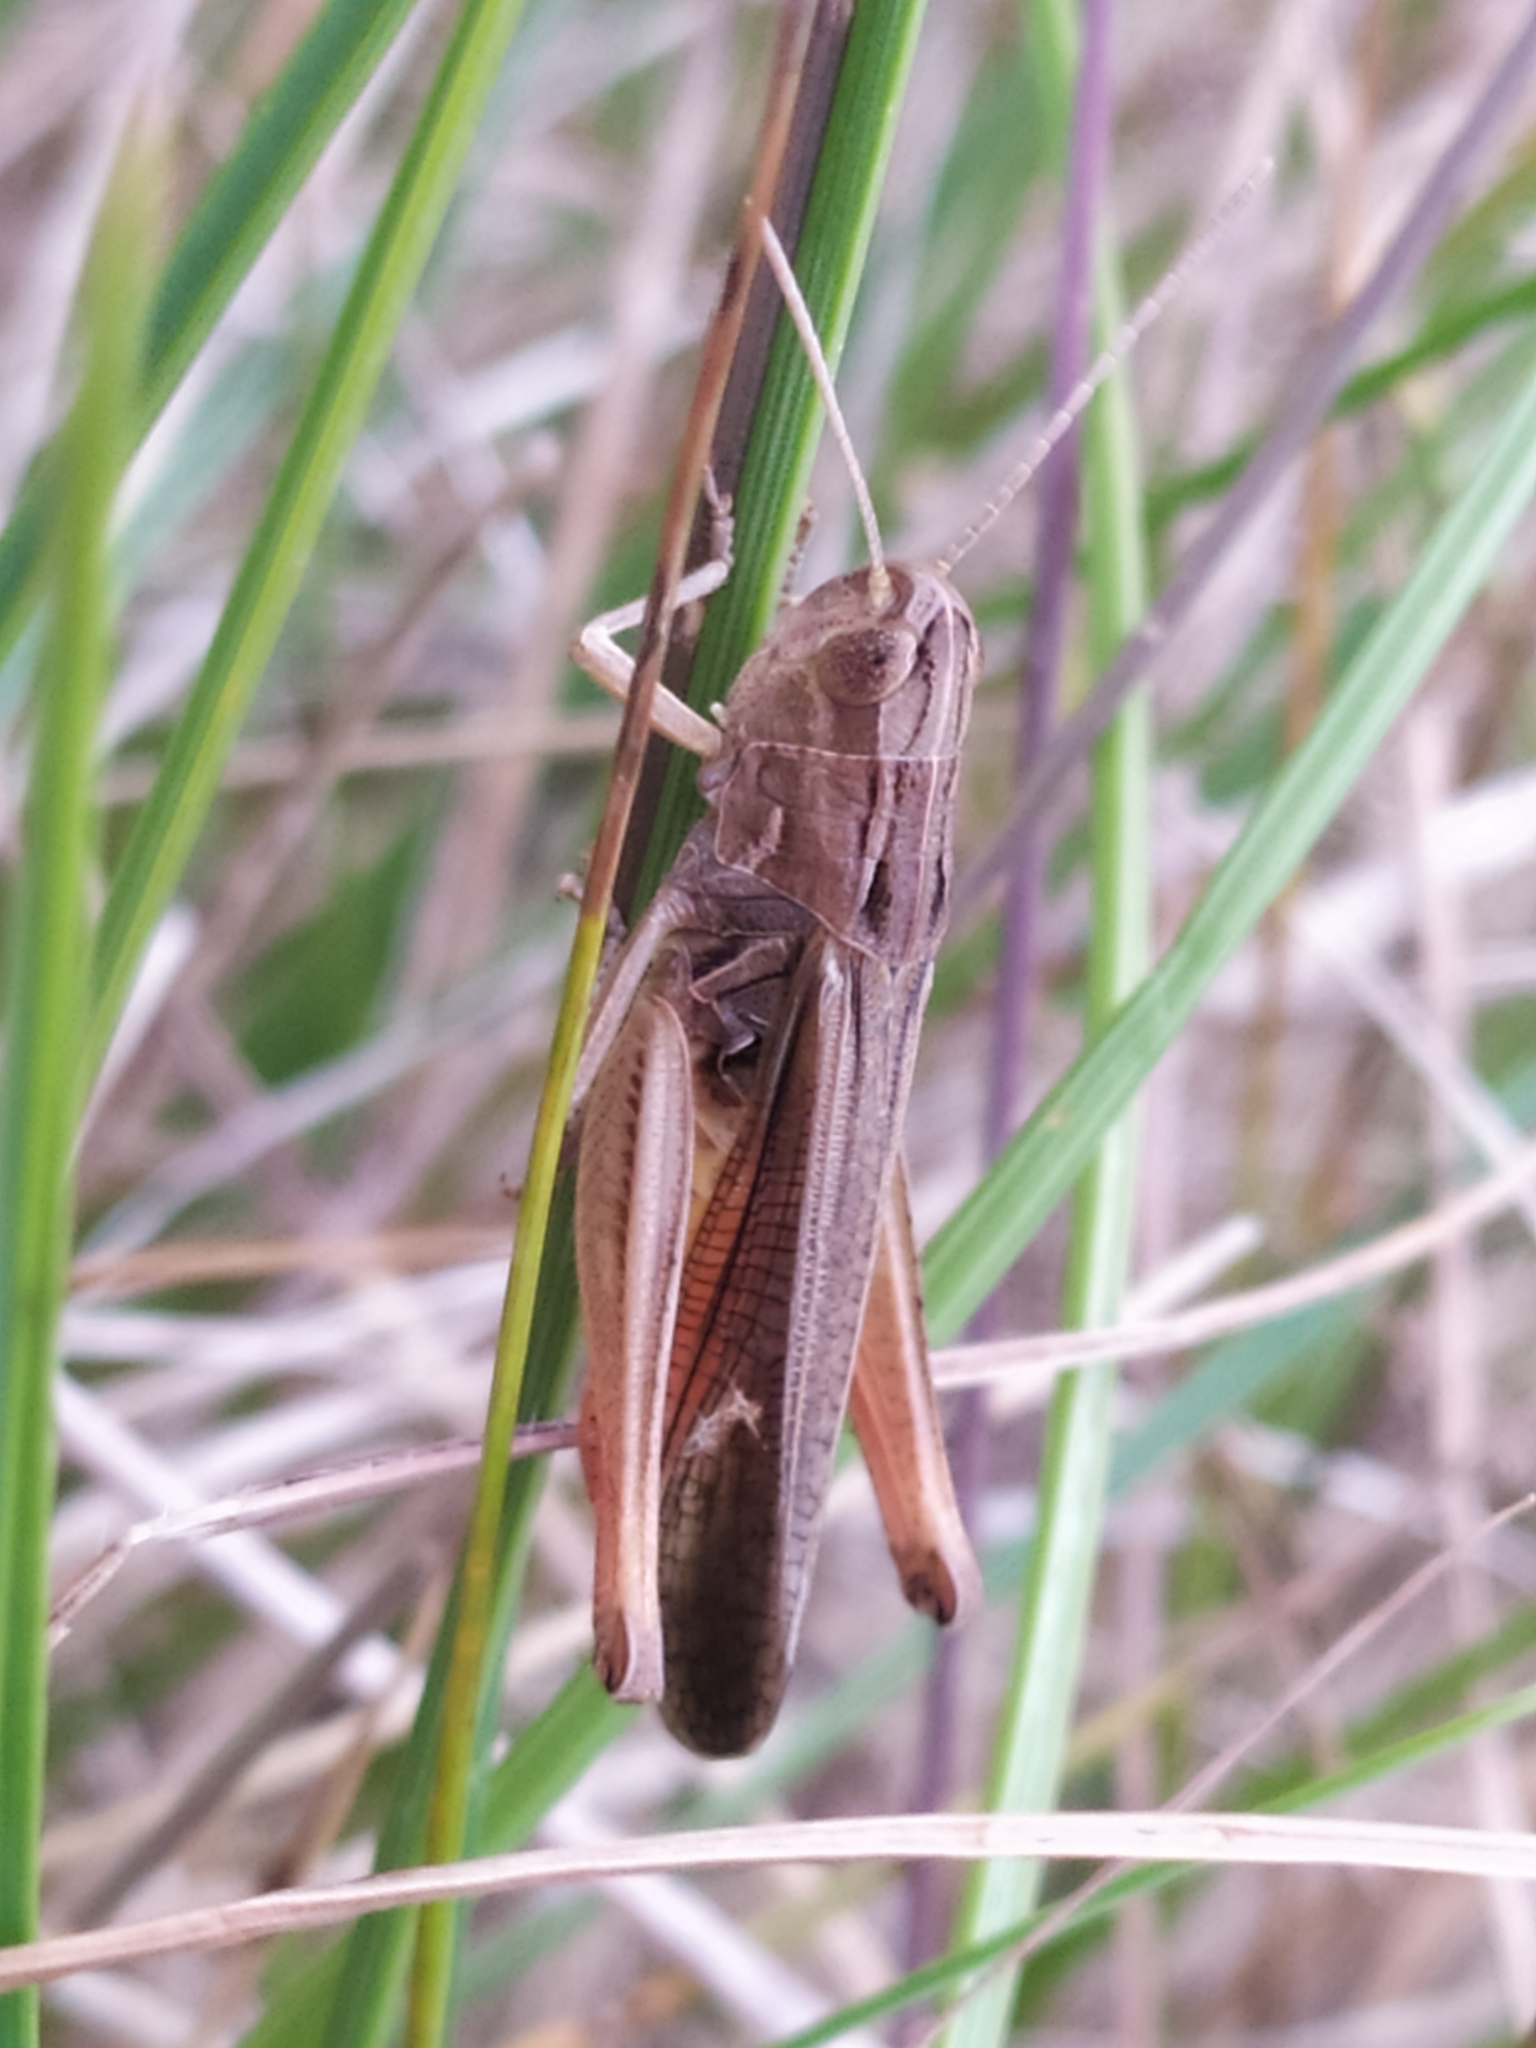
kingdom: Animalia
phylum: Arthropoda
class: Insecta
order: Orthoptera
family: Acrididae
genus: Stenobothrus
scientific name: Stenobothrus lineatus
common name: Stripe-winged grasshopper
